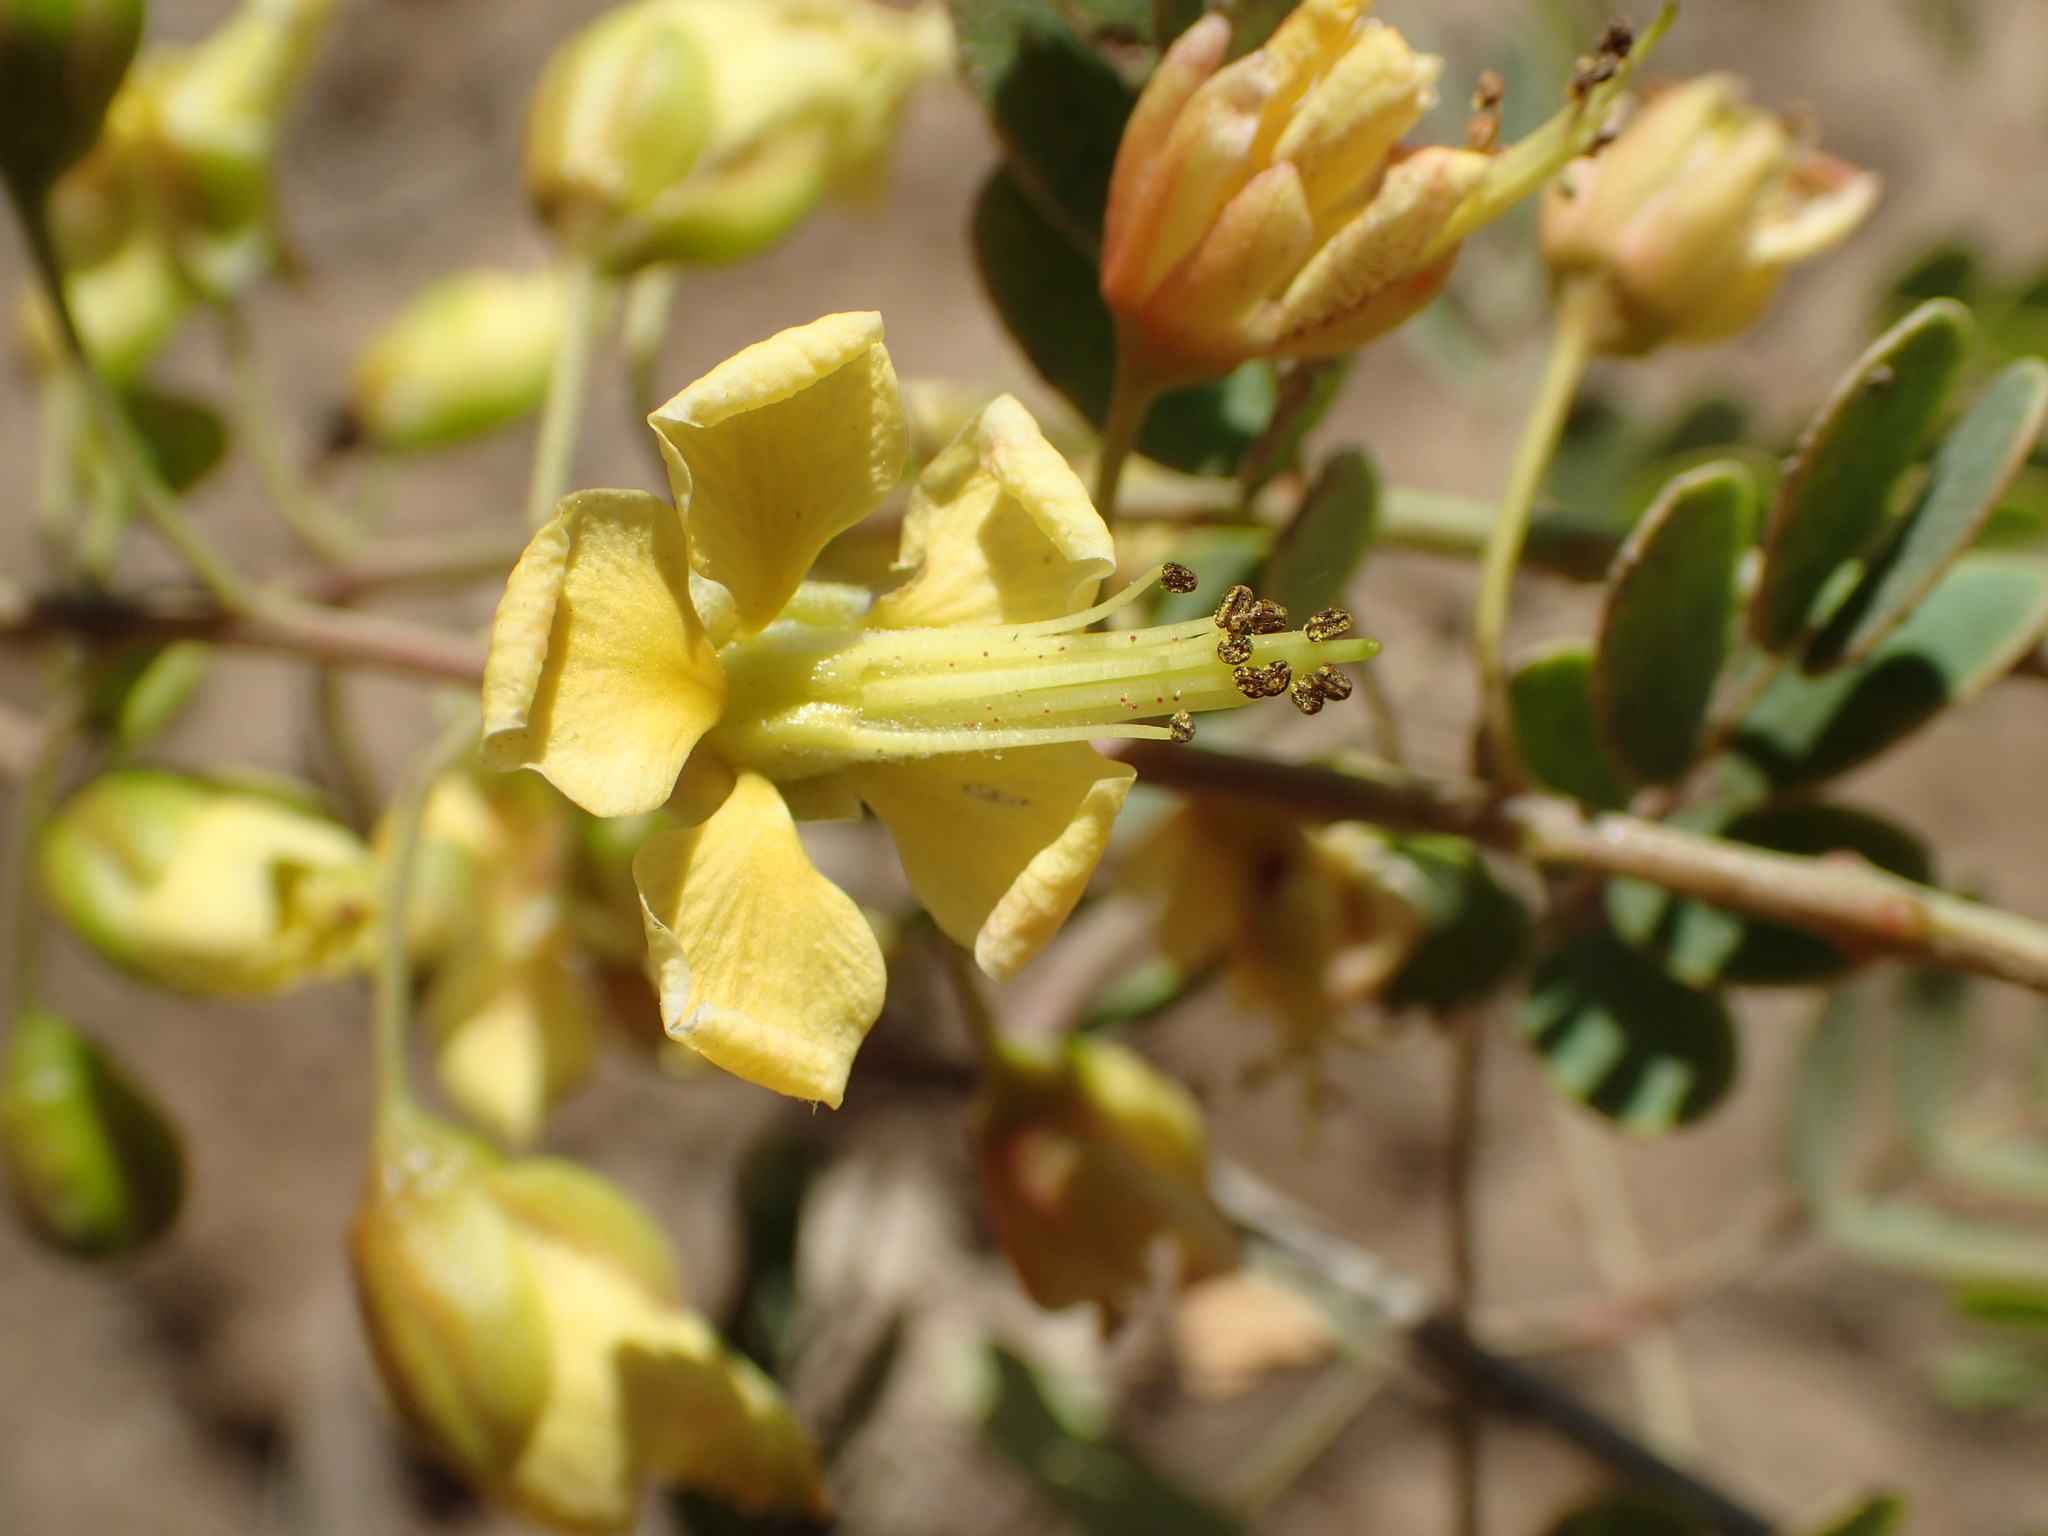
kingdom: Plantae
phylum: Tracheophyta
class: Magnoliopsida
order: Fabales
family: Fabaceae
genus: Erythrostemon
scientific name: Erythrostemon pannosus
